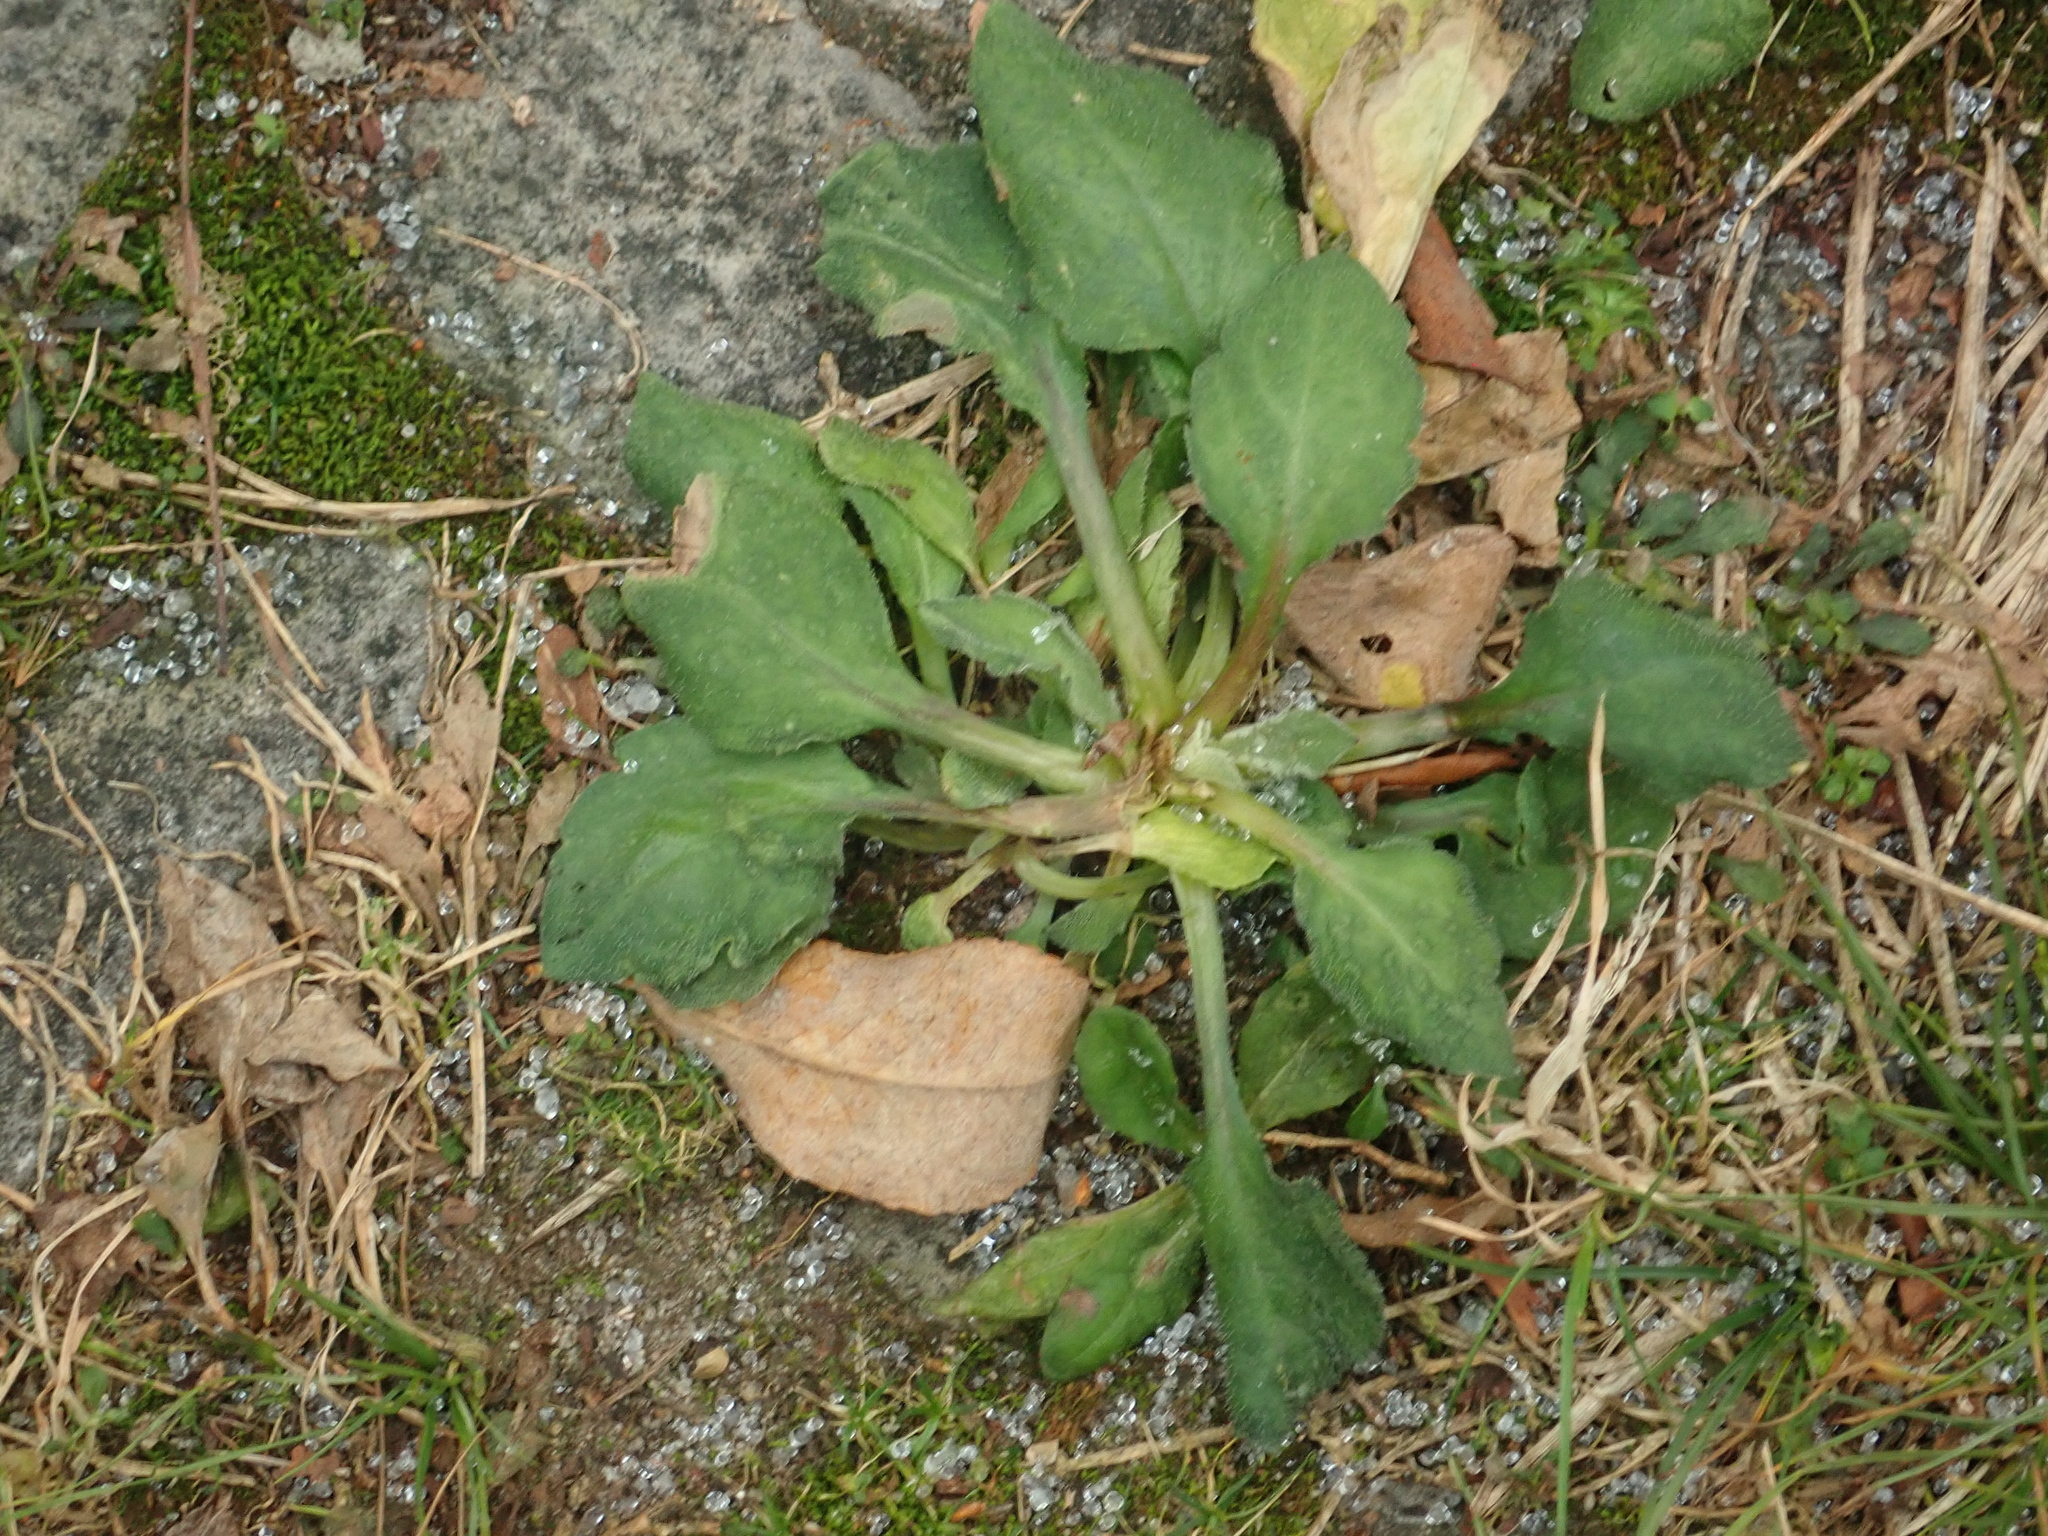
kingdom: Plantae
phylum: Tracheophyta
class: Magnoliopsida
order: Lamiales
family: Plantaginaceae
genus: Plantago
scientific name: Plantago major
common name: Common plantain
